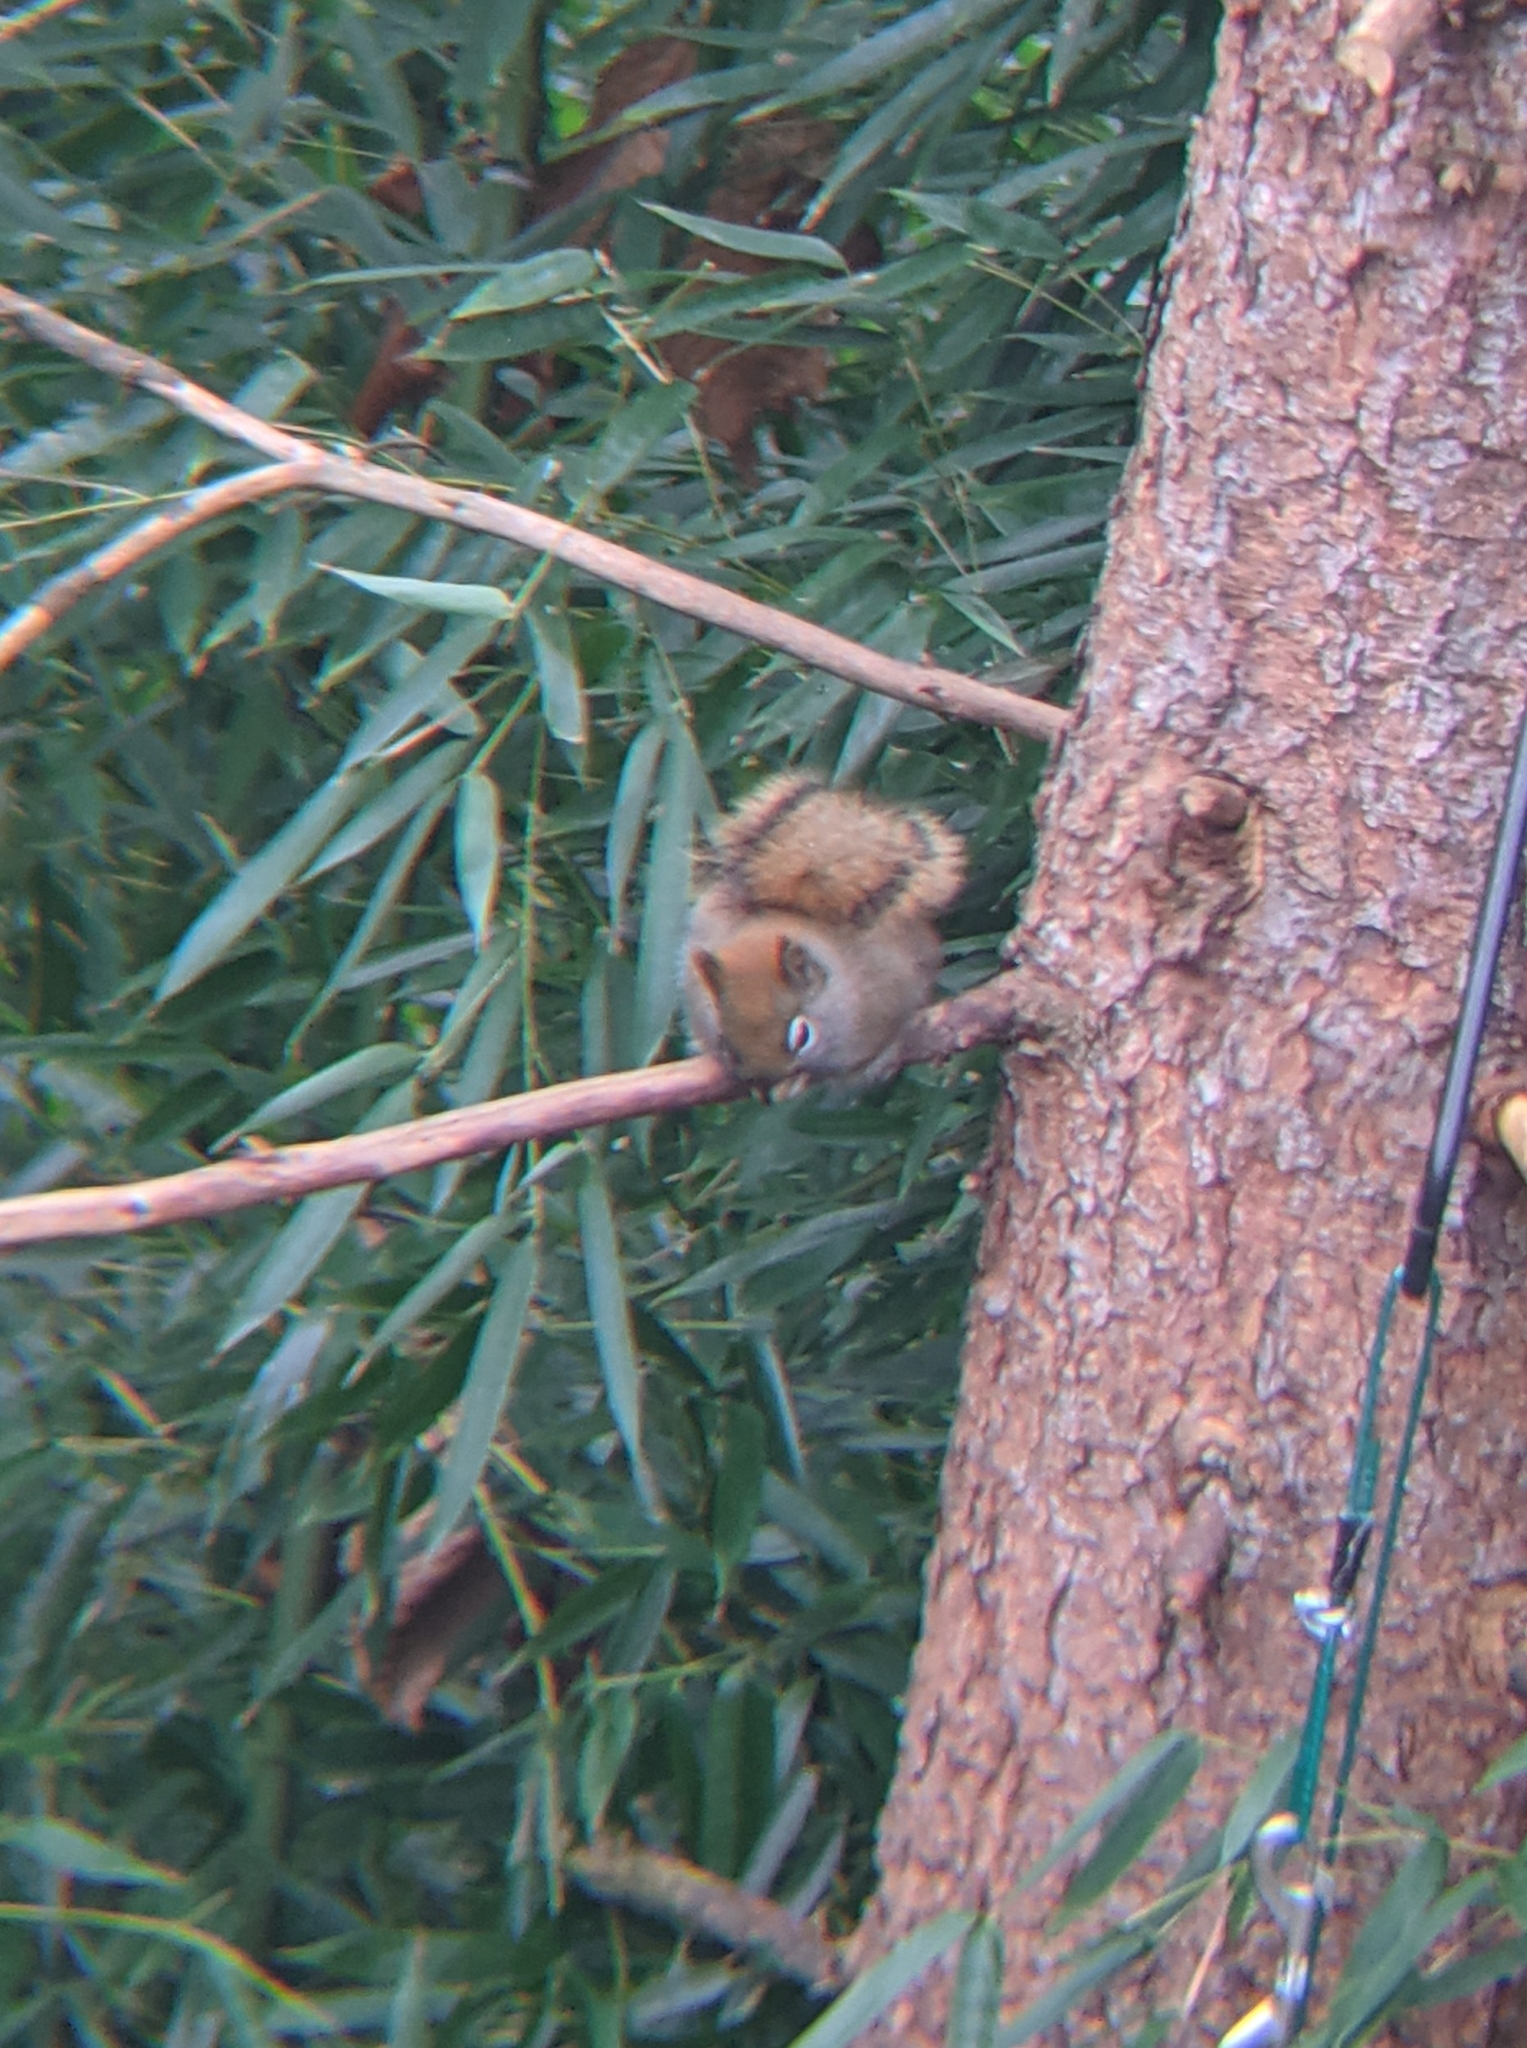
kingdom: Animalia
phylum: Chordata
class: Mammalia
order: Rodentia
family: Sciuridae
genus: Tamiasciurus
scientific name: Tamiasciurus hudsonicus
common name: Red squirrel
